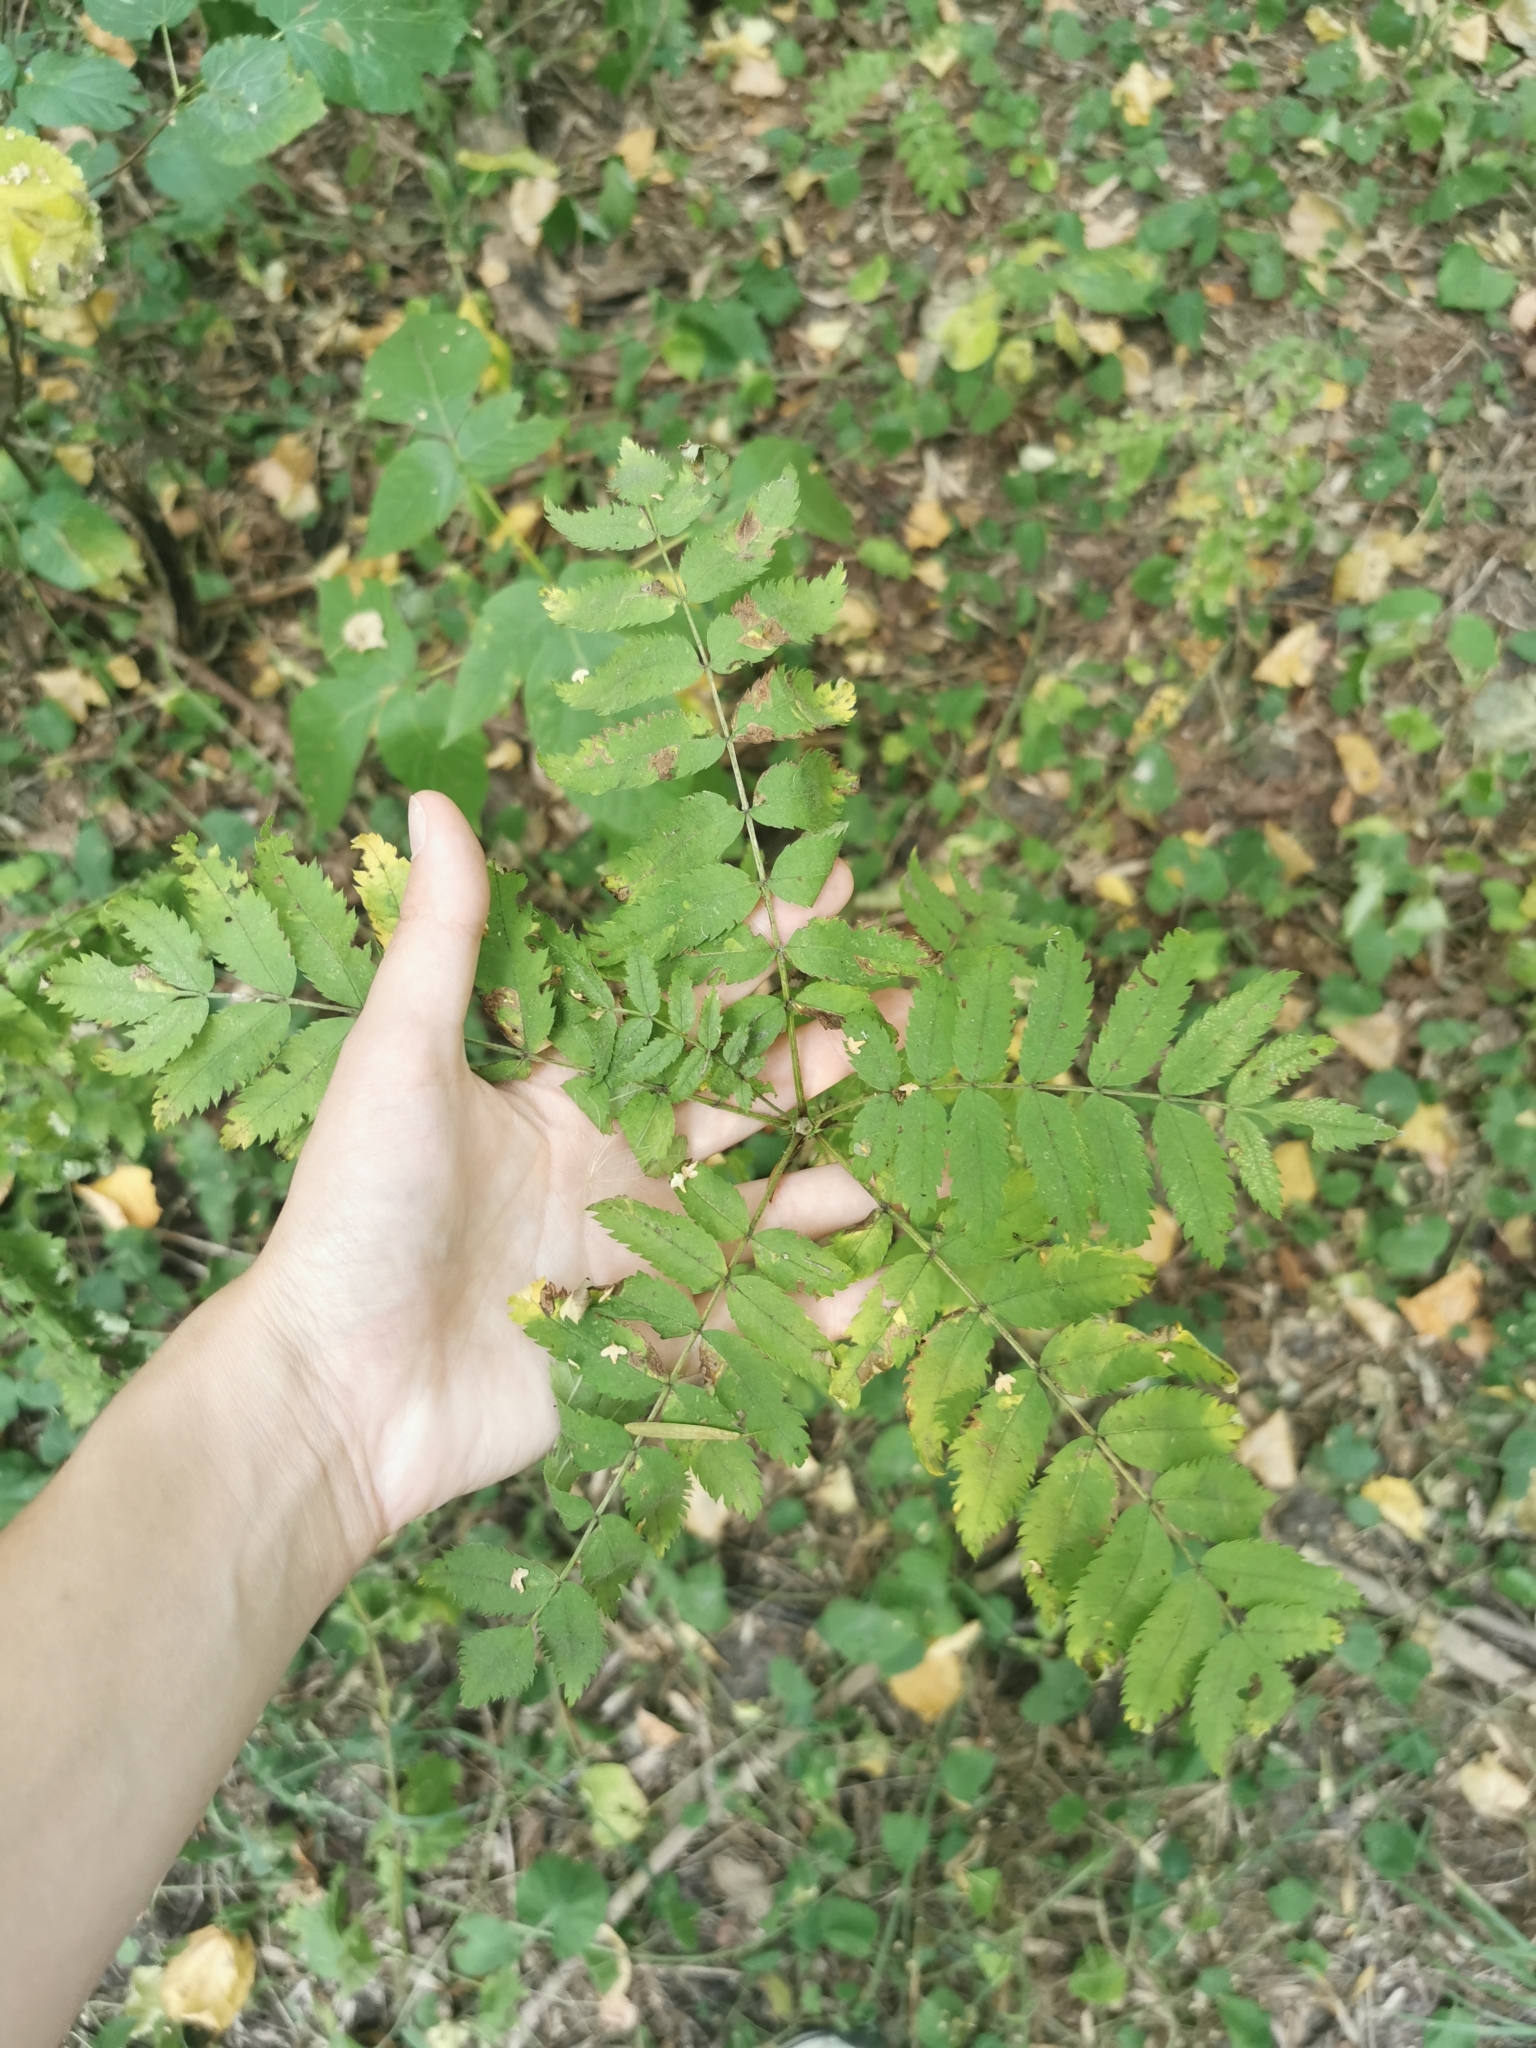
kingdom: Plantae
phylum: Tracheophyta
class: Magnoliopsida
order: Rosales
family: Rosaceae
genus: Sorbus
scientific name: Sorbus aucuparia
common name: Rowan
